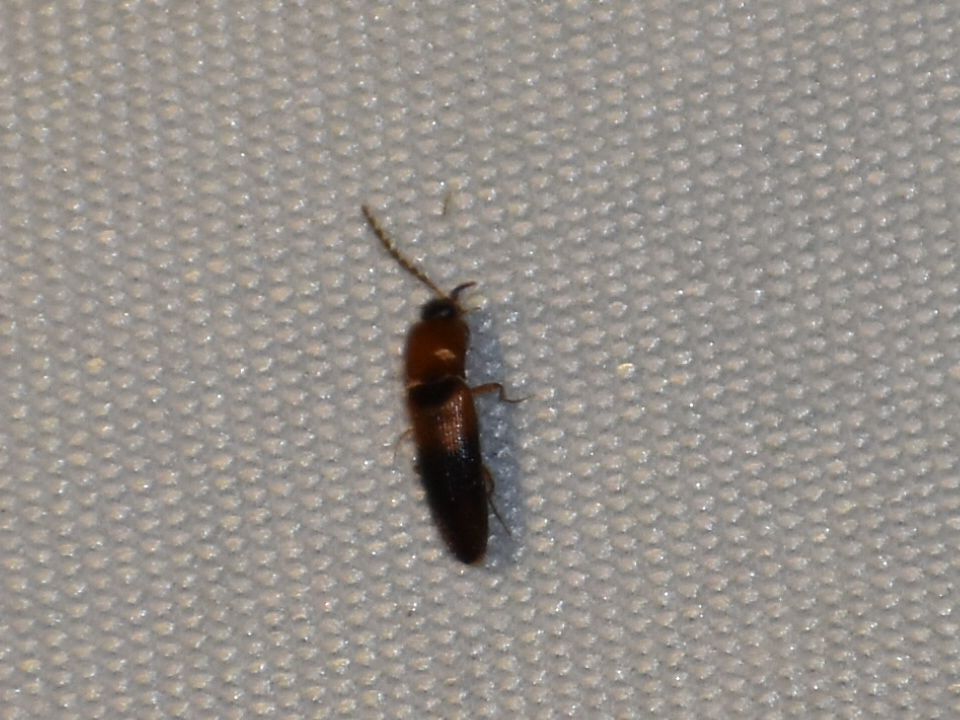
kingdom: Animalia
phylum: Arthropoda
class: Insecta
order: Coleoptera
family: Elateridae
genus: Ampedus
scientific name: Ampedus areolatus
